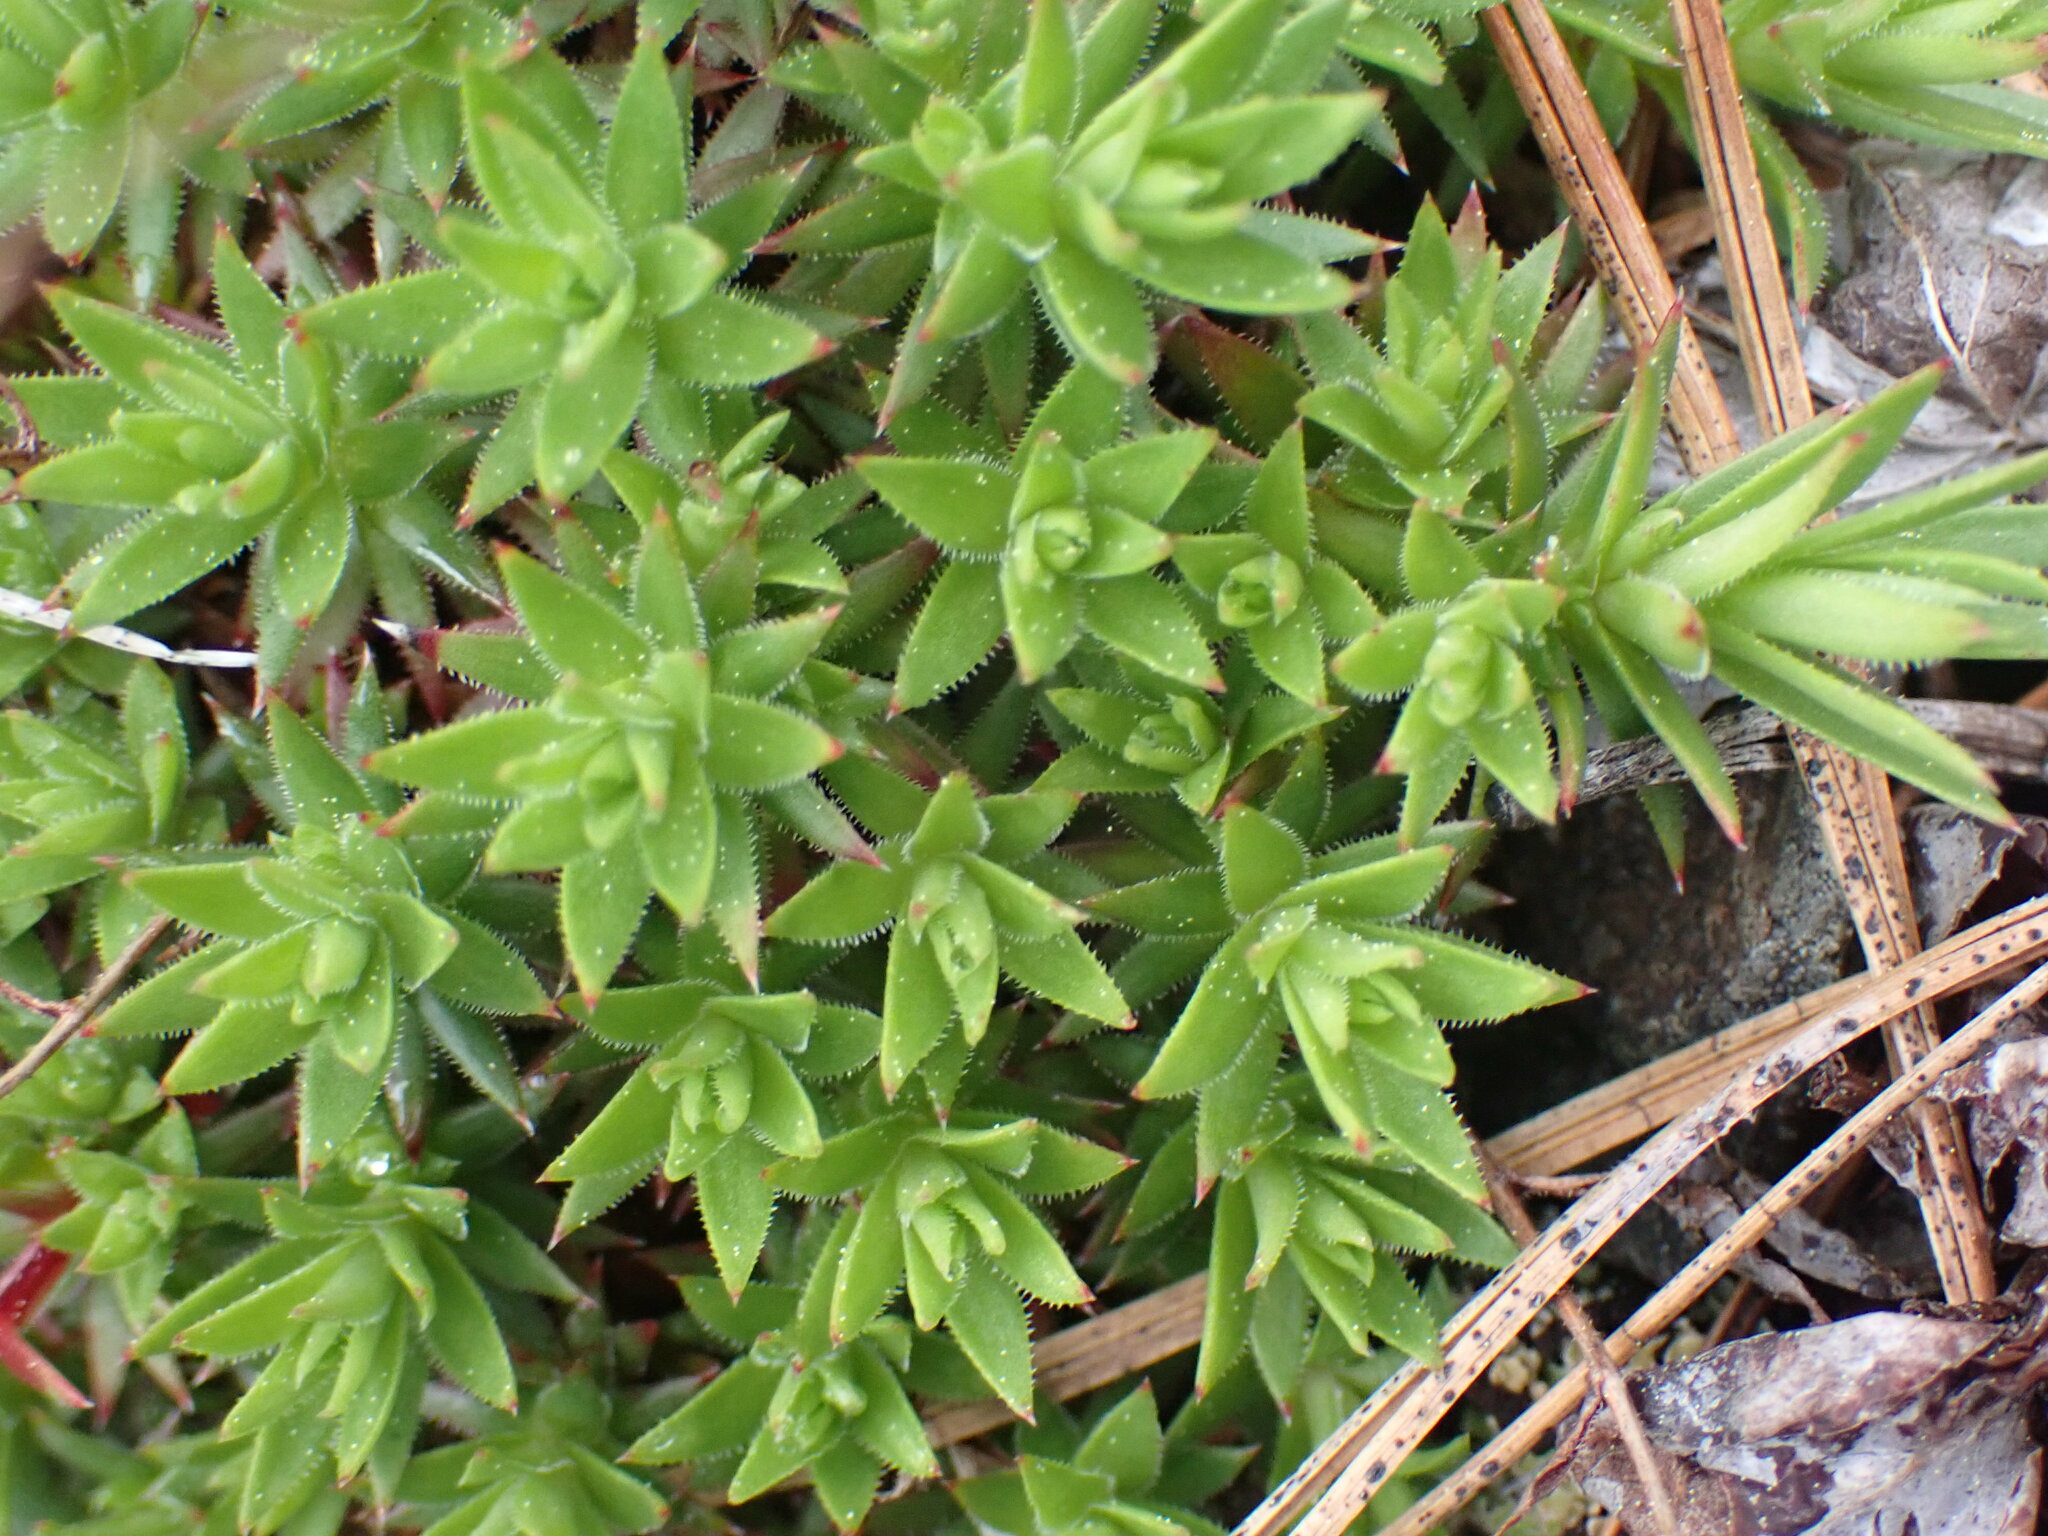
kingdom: Plantae
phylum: Tracheophyta
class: Magnoliopsida
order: Saxifragales
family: Saxifragaceae
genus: Saxifraga
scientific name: Saxifraga bronchialis
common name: Matted saxifrage
